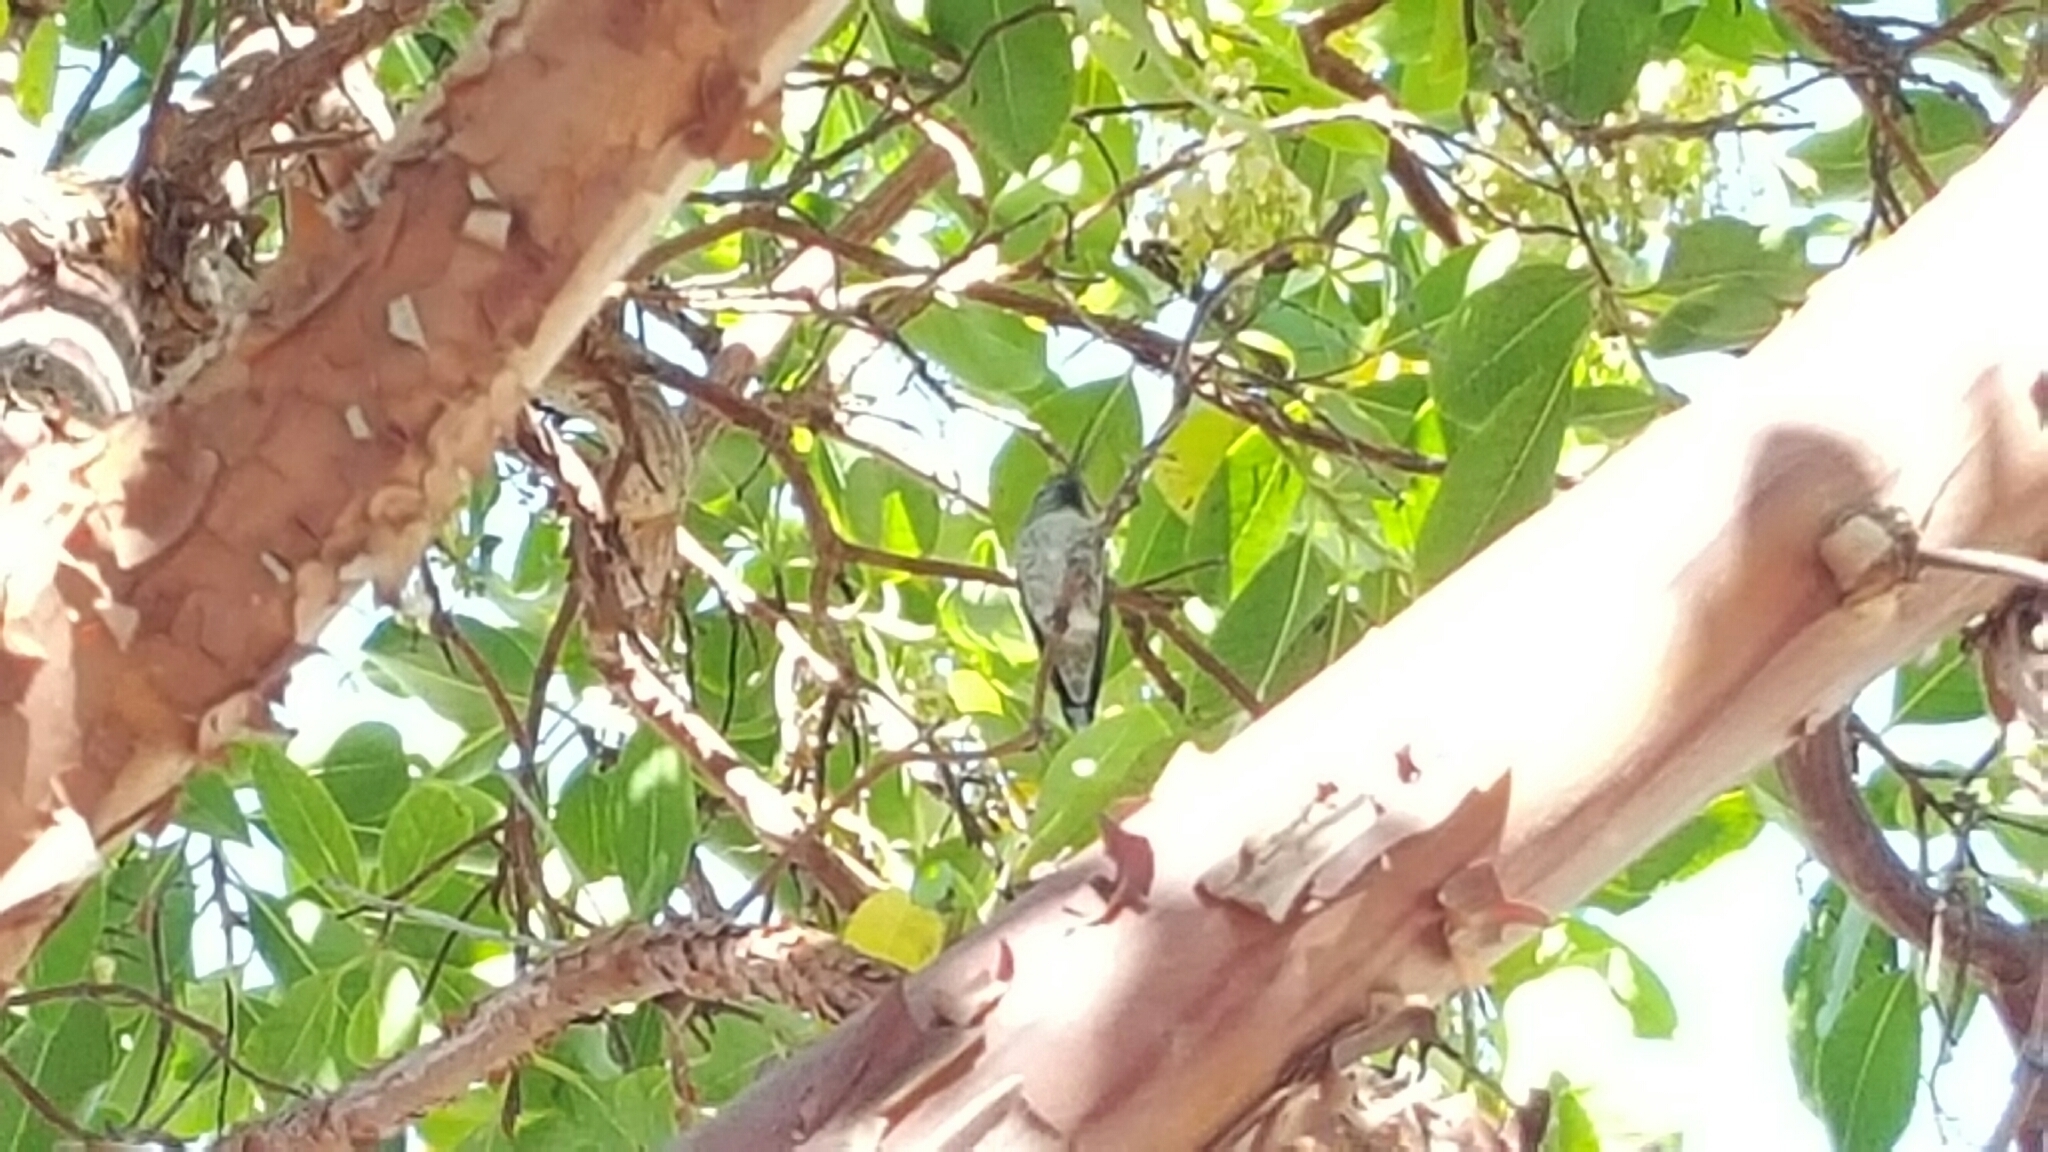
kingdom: Animalia
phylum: Chordata
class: Aves
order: Apodiformes
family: Trochilidae
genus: Calypte
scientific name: Calypte anna
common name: Anna's hummingbird
